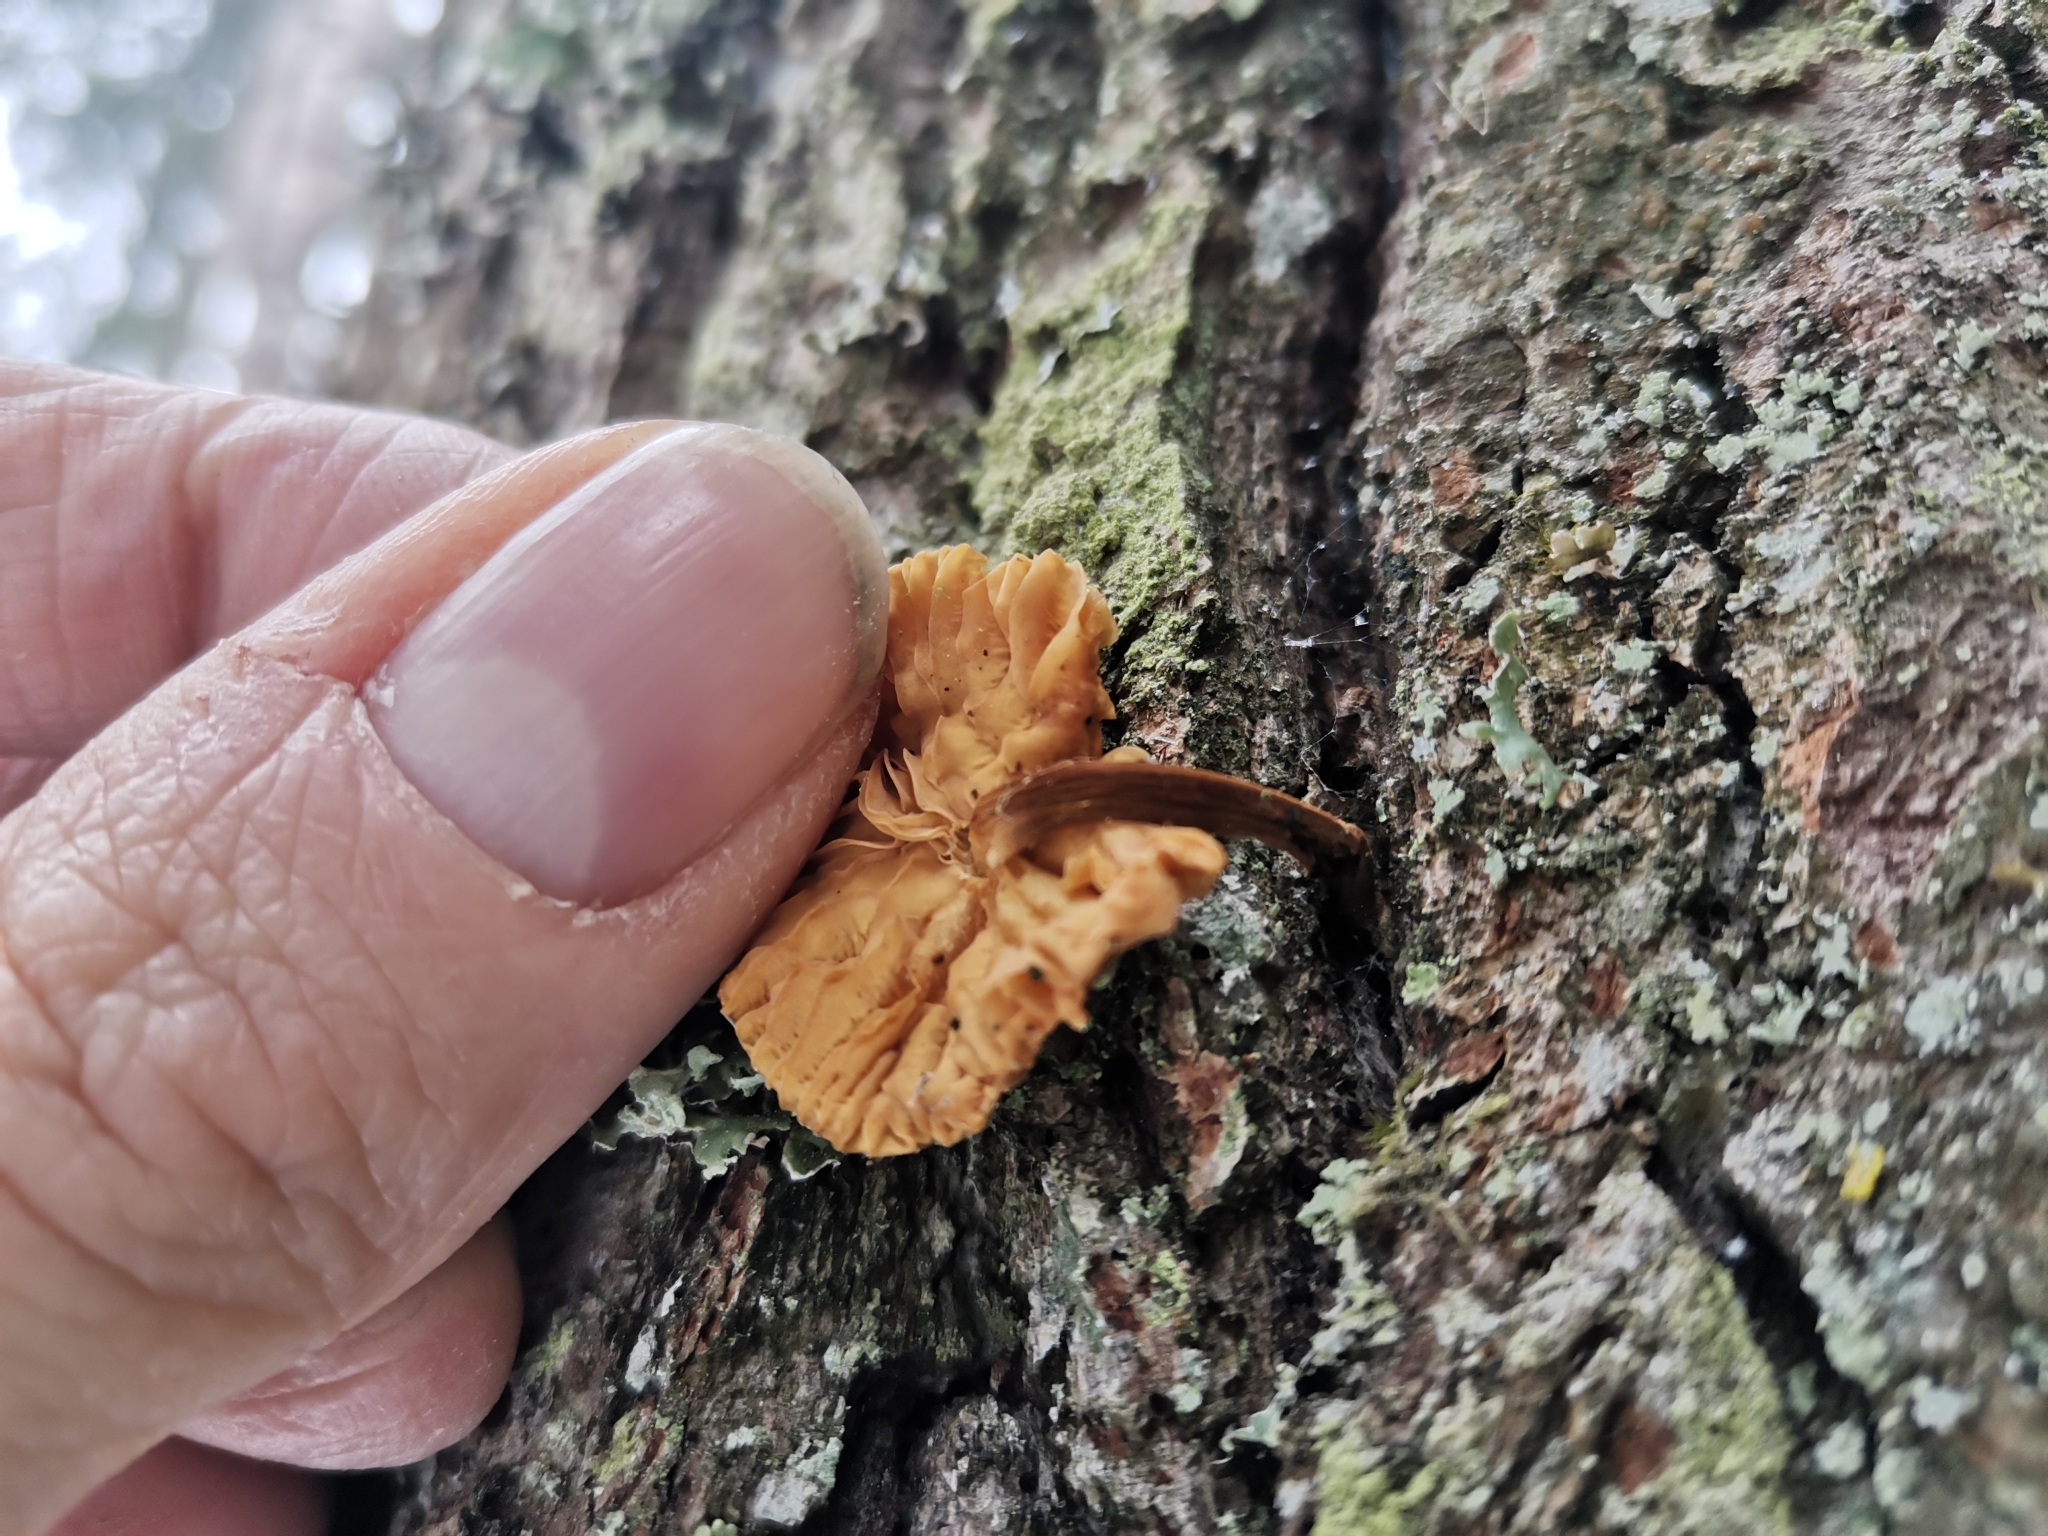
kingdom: Fungi
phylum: Basidiomycota
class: Agaricomycetes
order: Agaricales
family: Physalacriaceae
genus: Flammulina
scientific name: Flammulina
